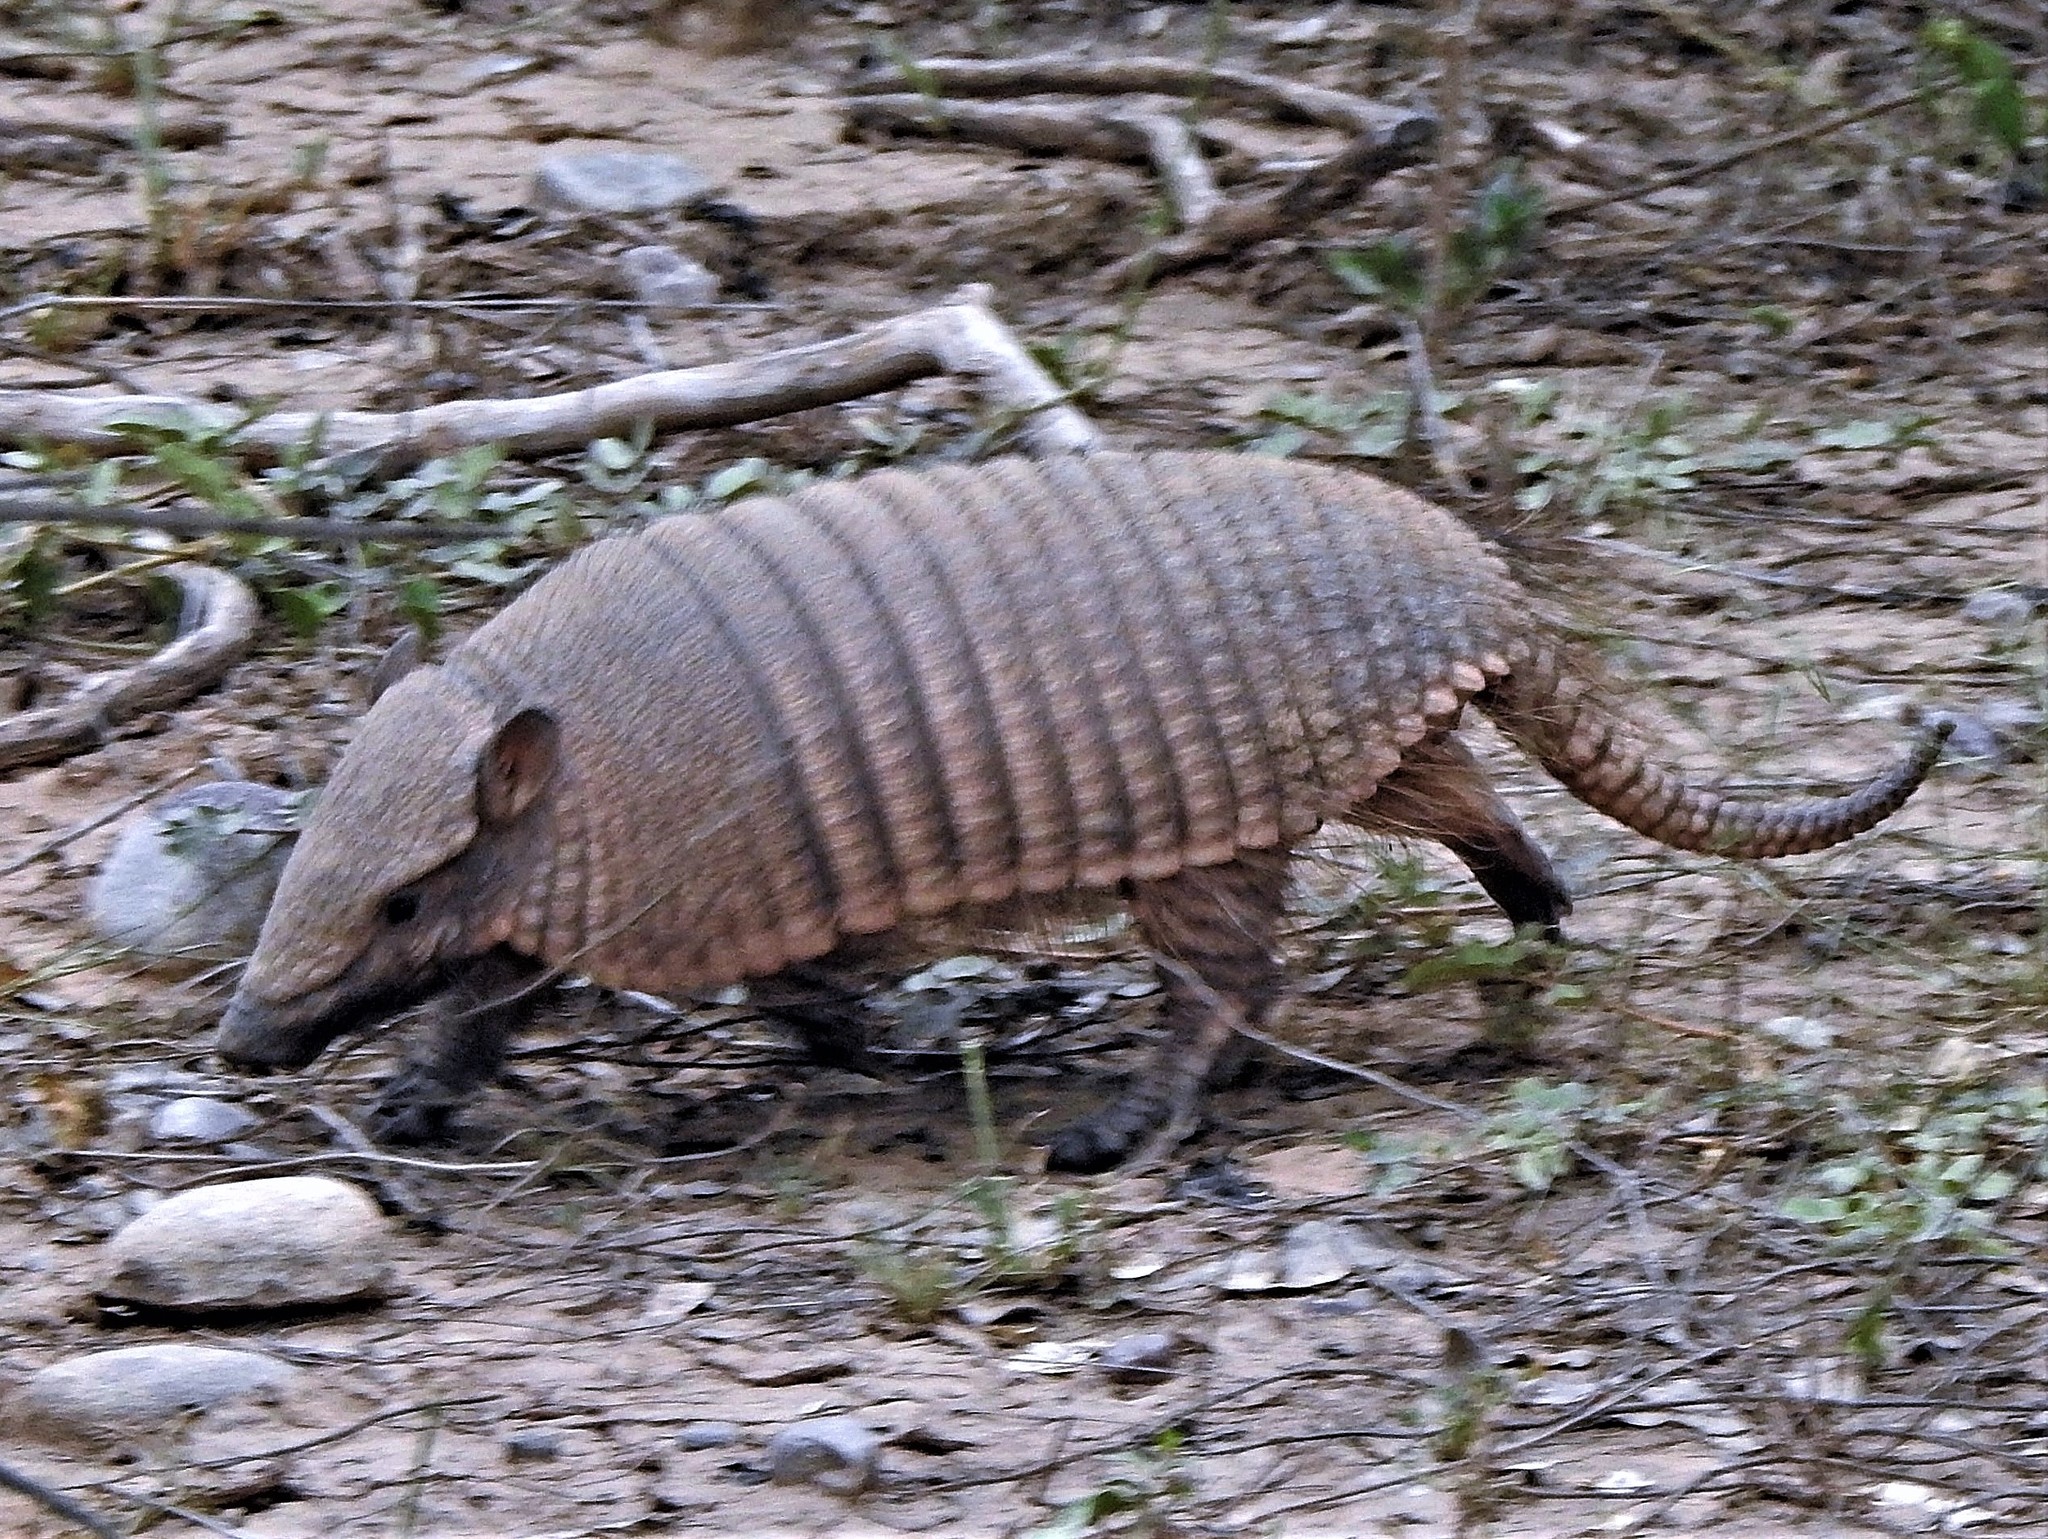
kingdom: Animalia
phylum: Chordata
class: Mammalia
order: Cingulata
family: Dasypodidae
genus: Euphractus
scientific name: Euphractus sexcinctus
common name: Six-banded armadillo
